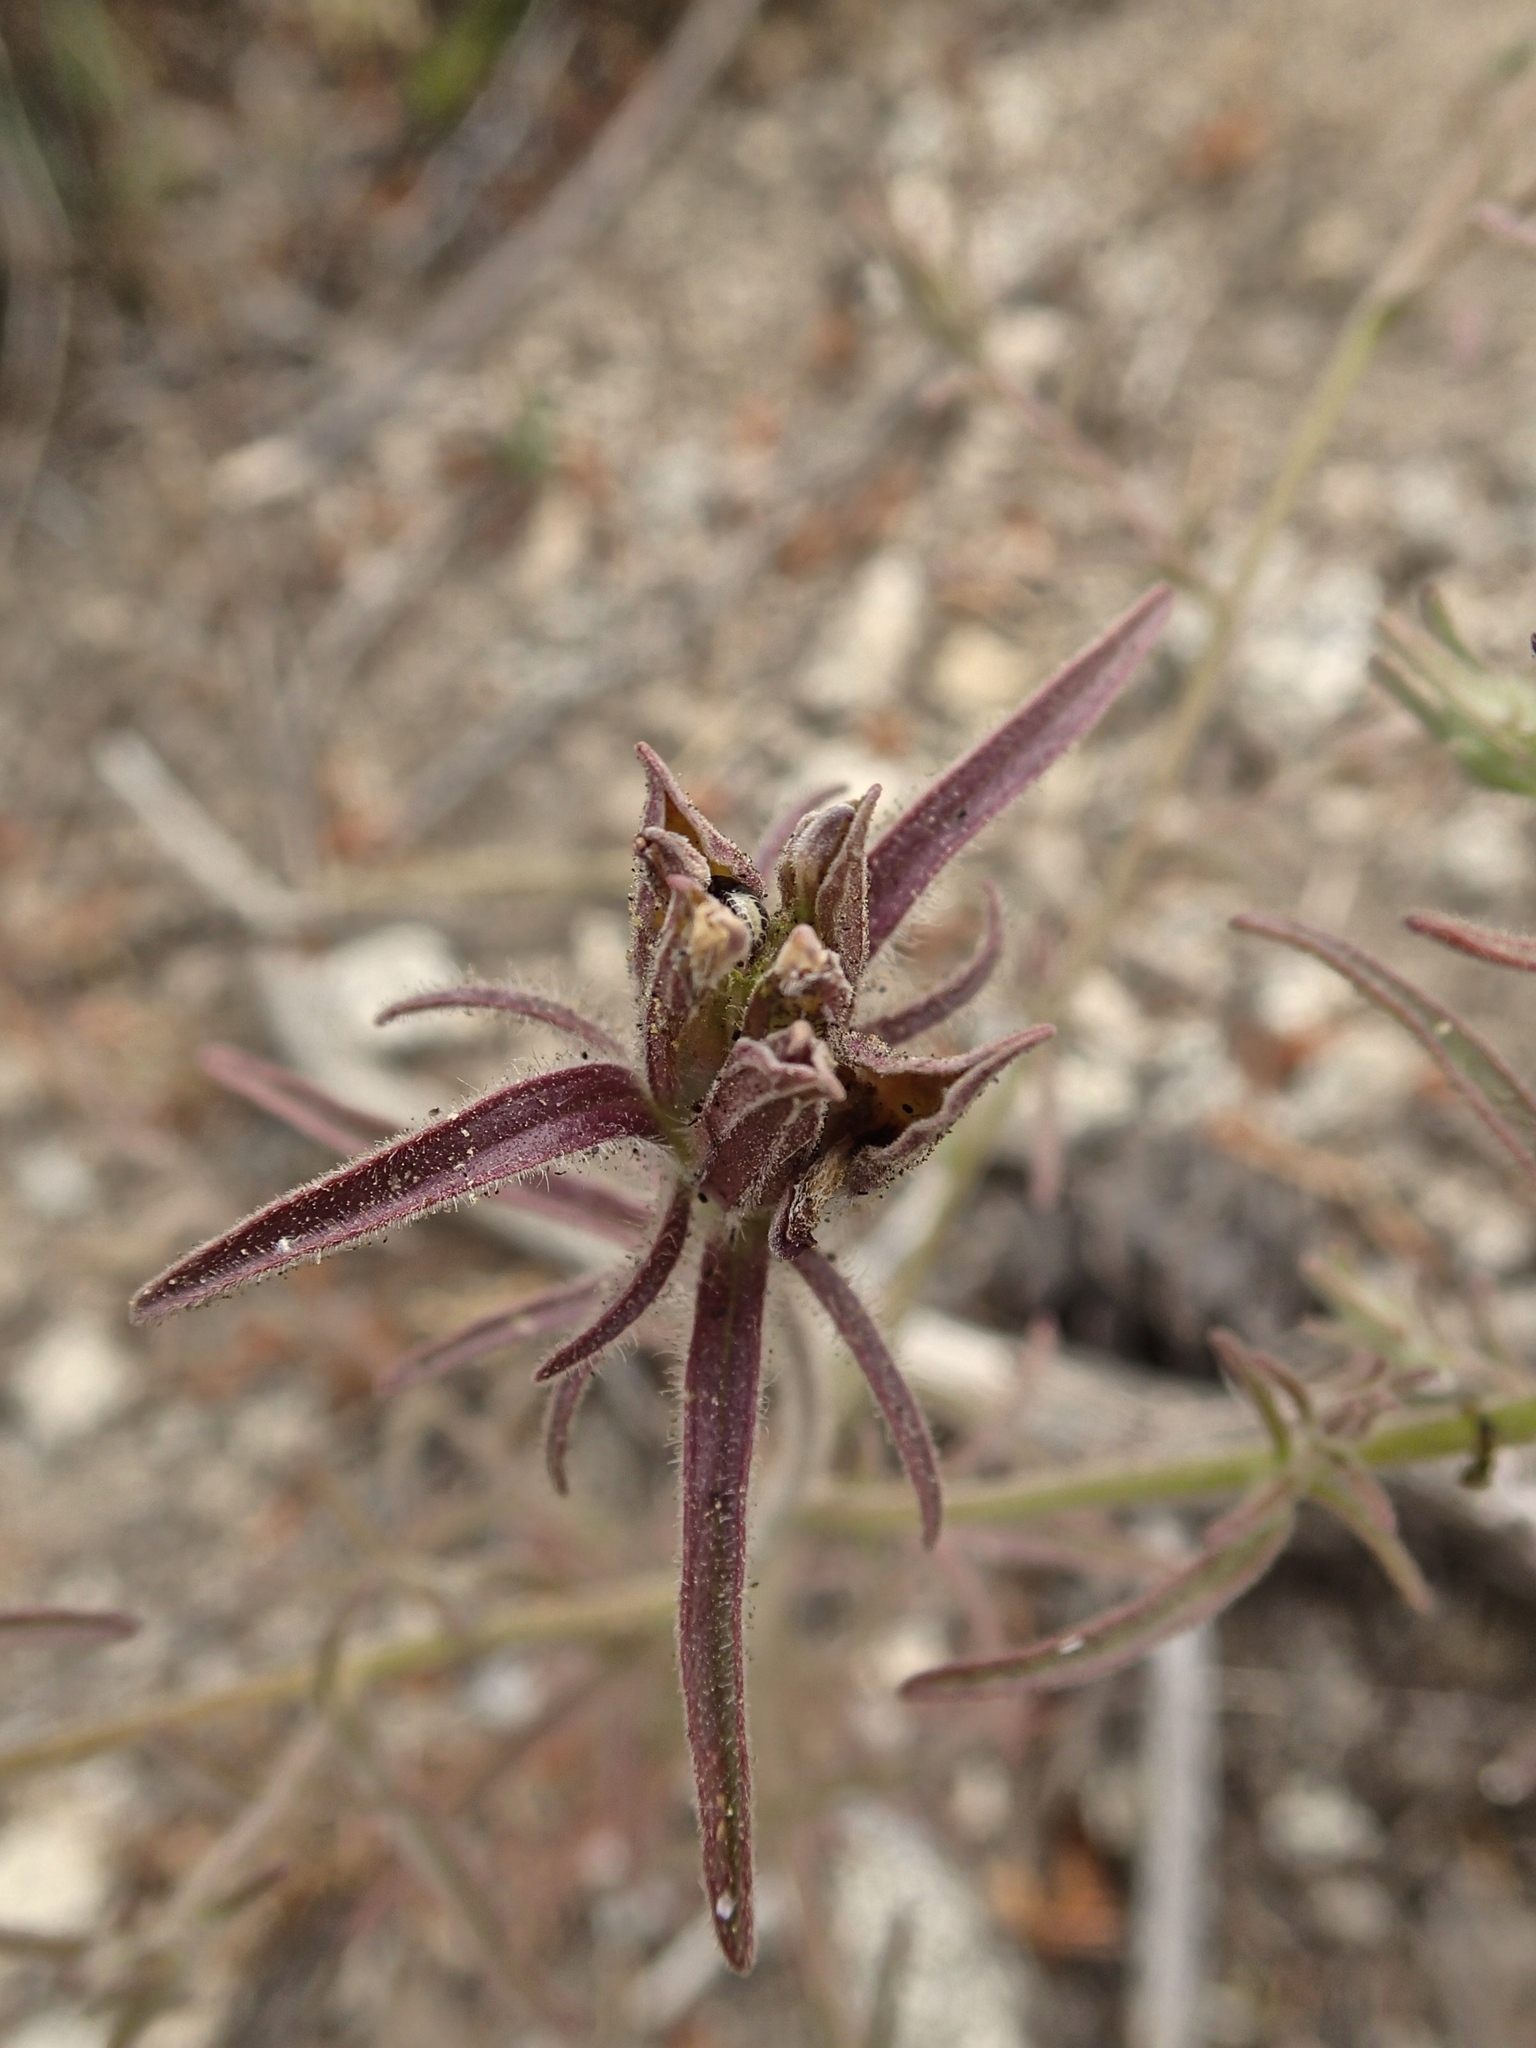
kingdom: Plantae
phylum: Tracheophyta
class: Magnoliopsida
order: Lamiales
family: Orobanchaceae
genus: Cordylanthus
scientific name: Cordylanthus capitatus
